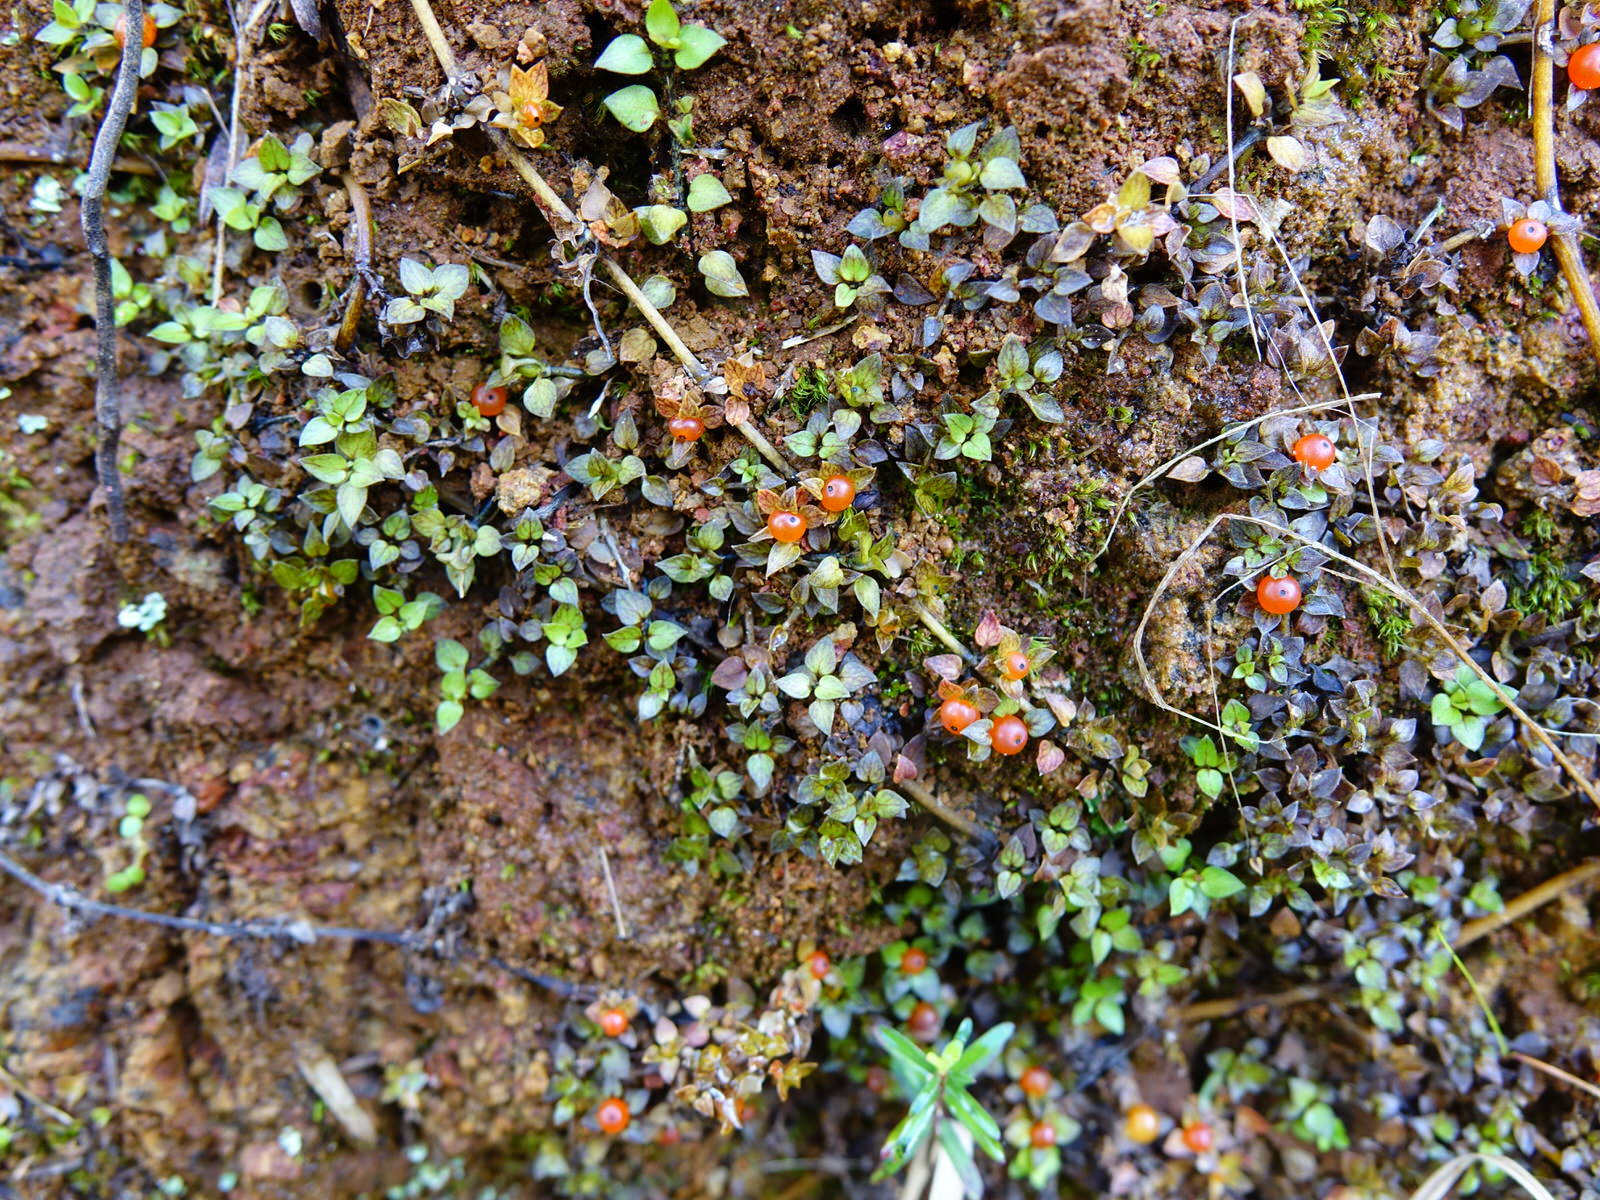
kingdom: Plantae
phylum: Tracheophyta
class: Magnoliopsida
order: Gentianales
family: Rubiaceae
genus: Nertera
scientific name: Nertera granadensis
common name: Beadplant
